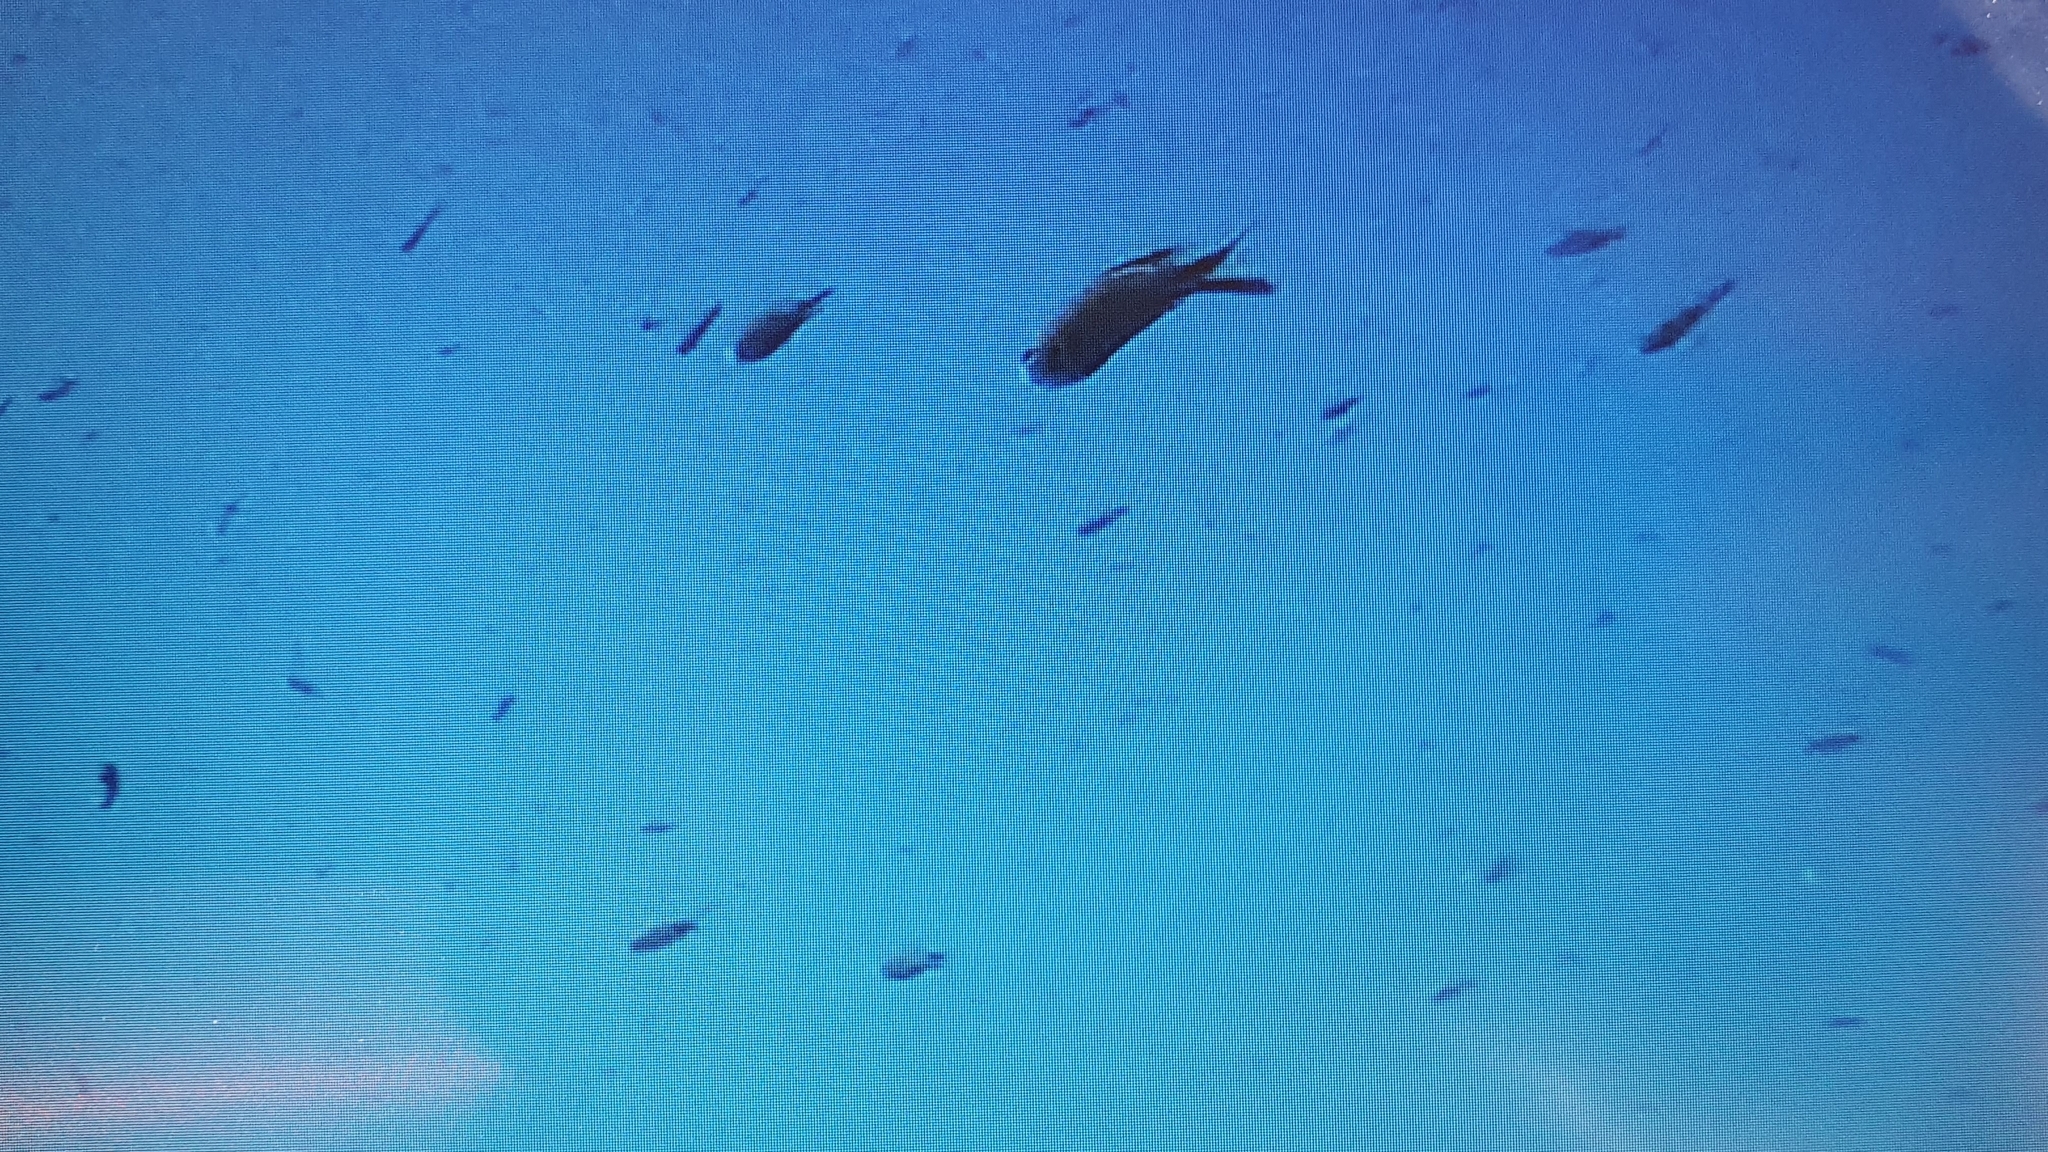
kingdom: Animalia
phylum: Chordata
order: Perciformes
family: Pomacentridae
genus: Chromis
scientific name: Chromis chromis
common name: Damselfish
